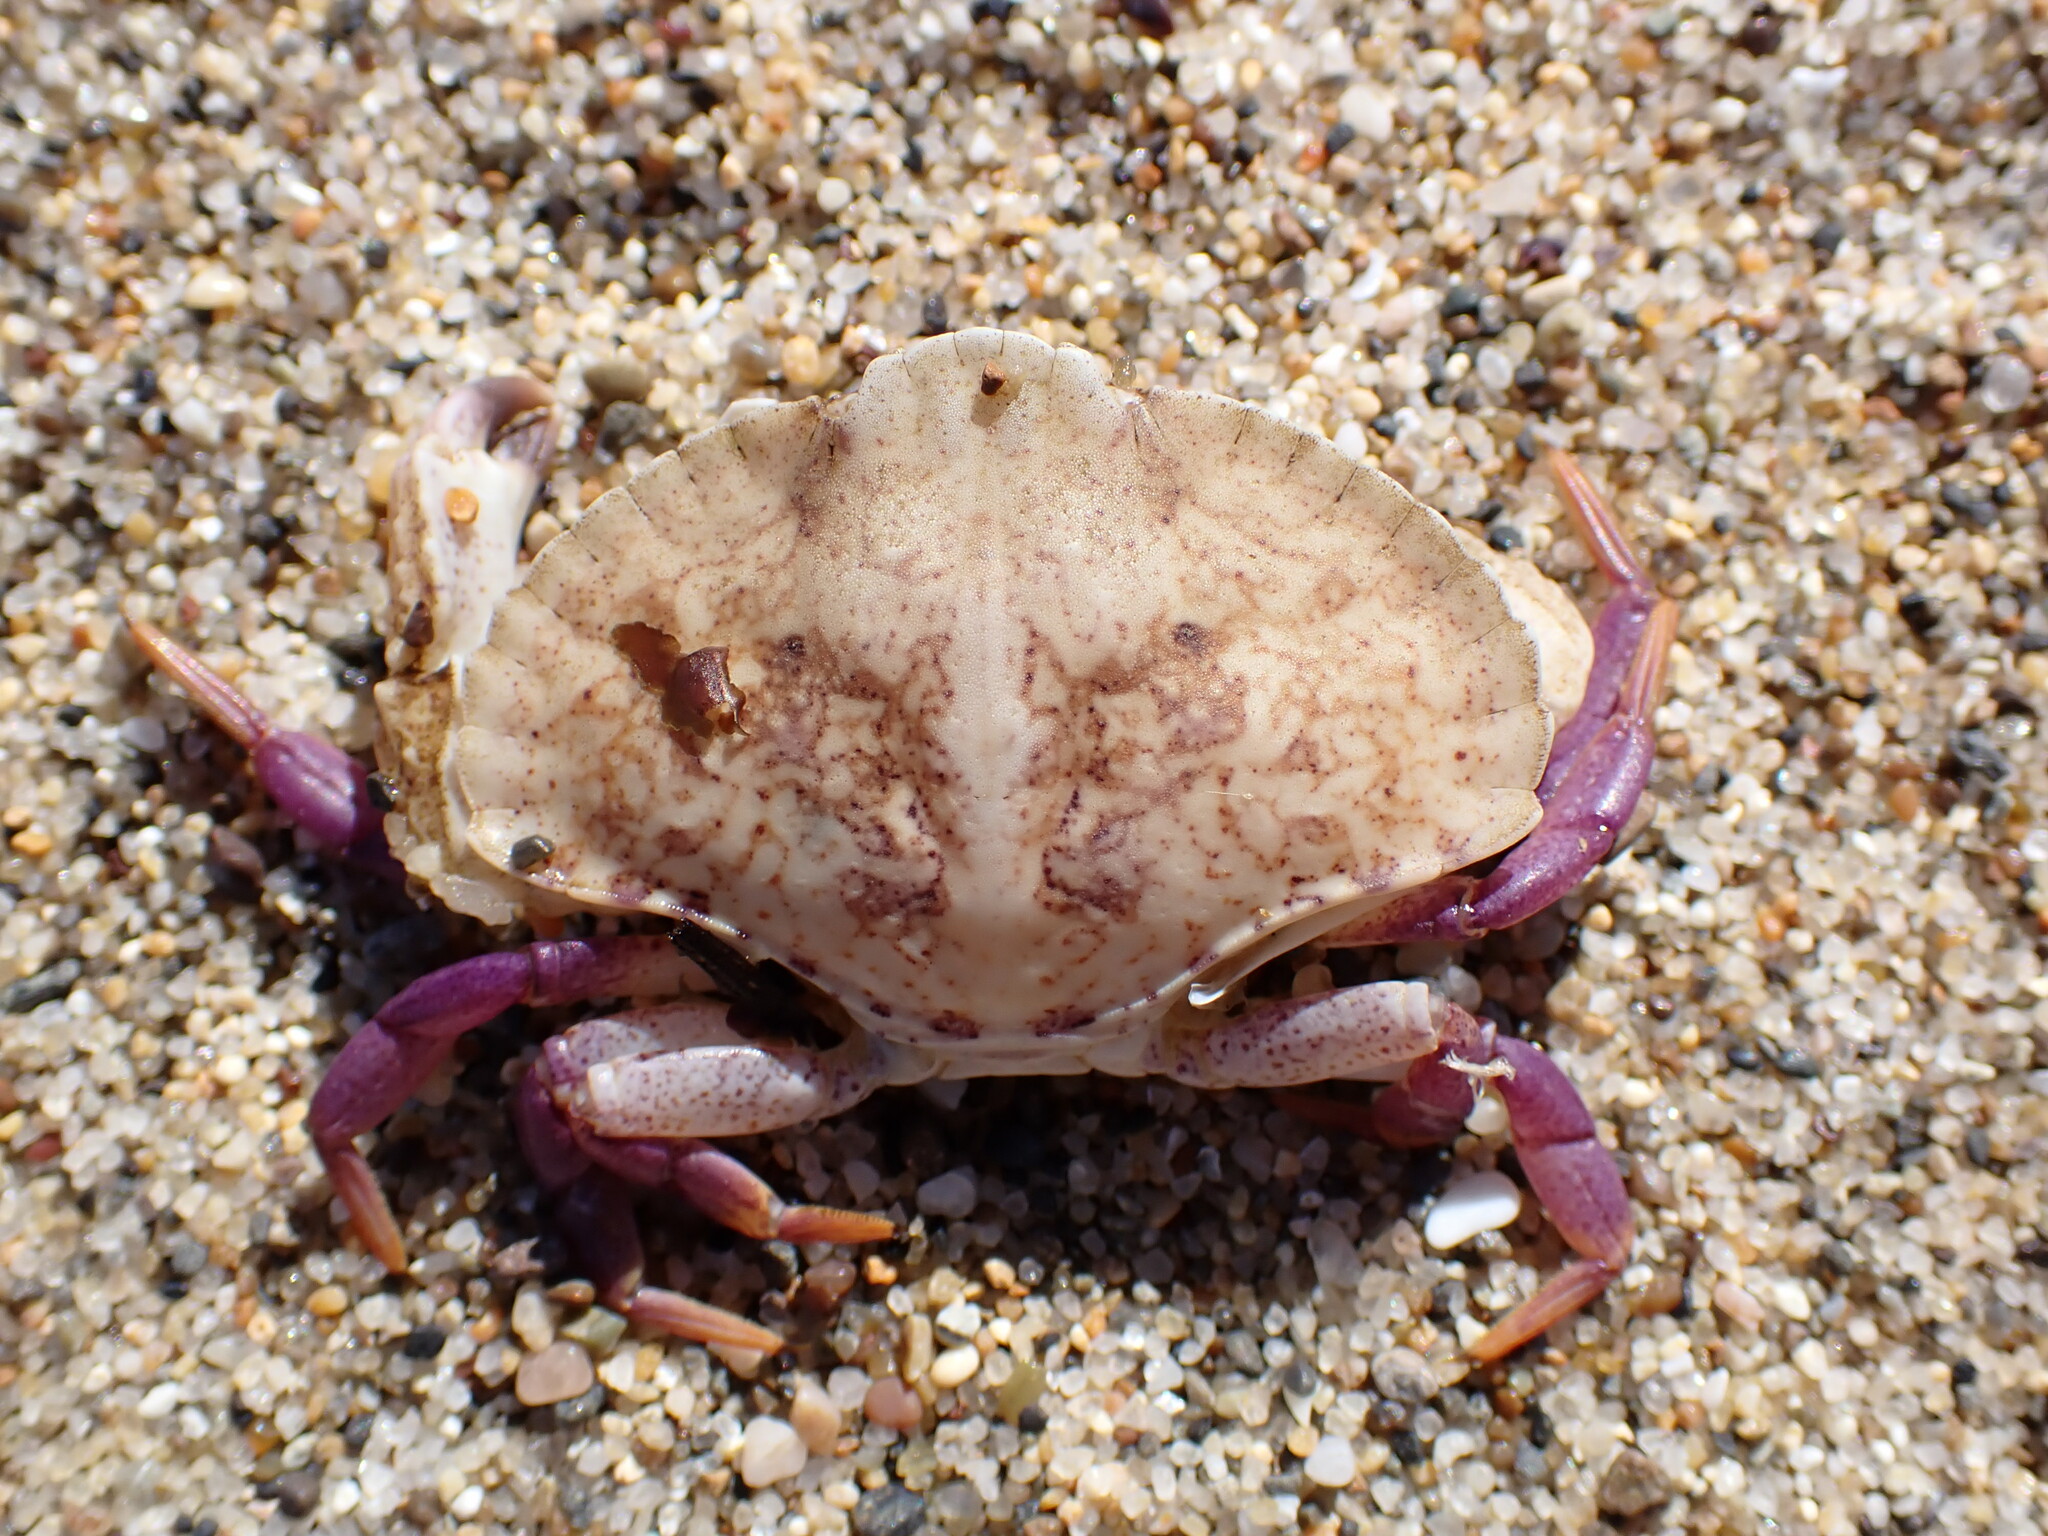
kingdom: Animalia
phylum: Arthropoda
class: Malacostraca
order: Decapoda
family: Cancridae
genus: Cancer
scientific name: Cancer productus
